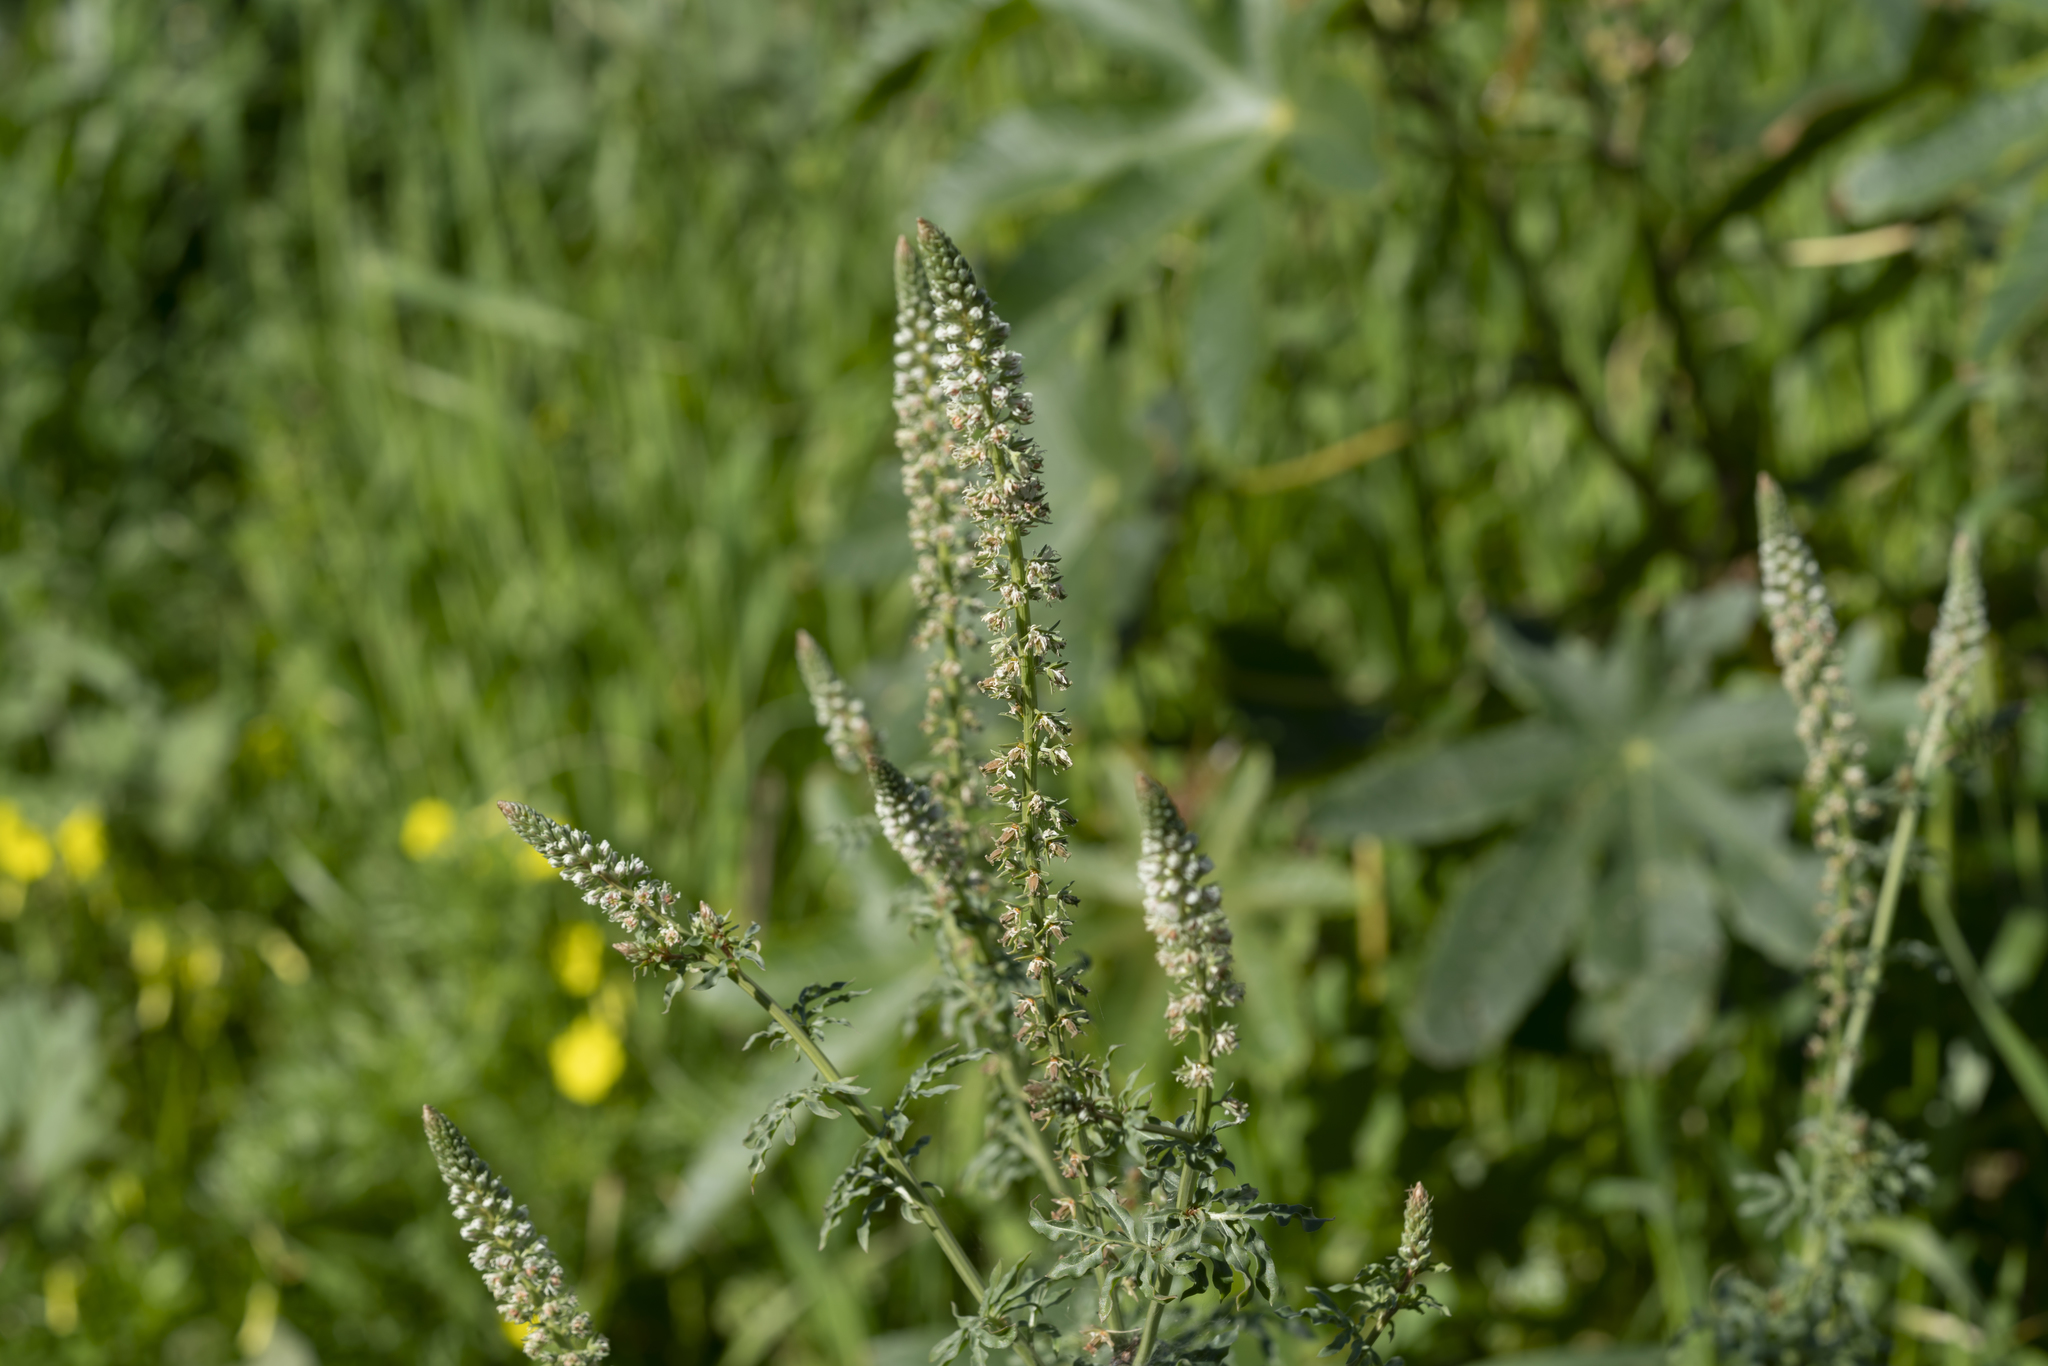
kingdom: Plantae
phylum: Tracheophyta
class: Magnoliopsida
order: Brassicales
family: Resedaceae
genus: Reseda
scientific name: Reseda alba
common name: White mignonette
